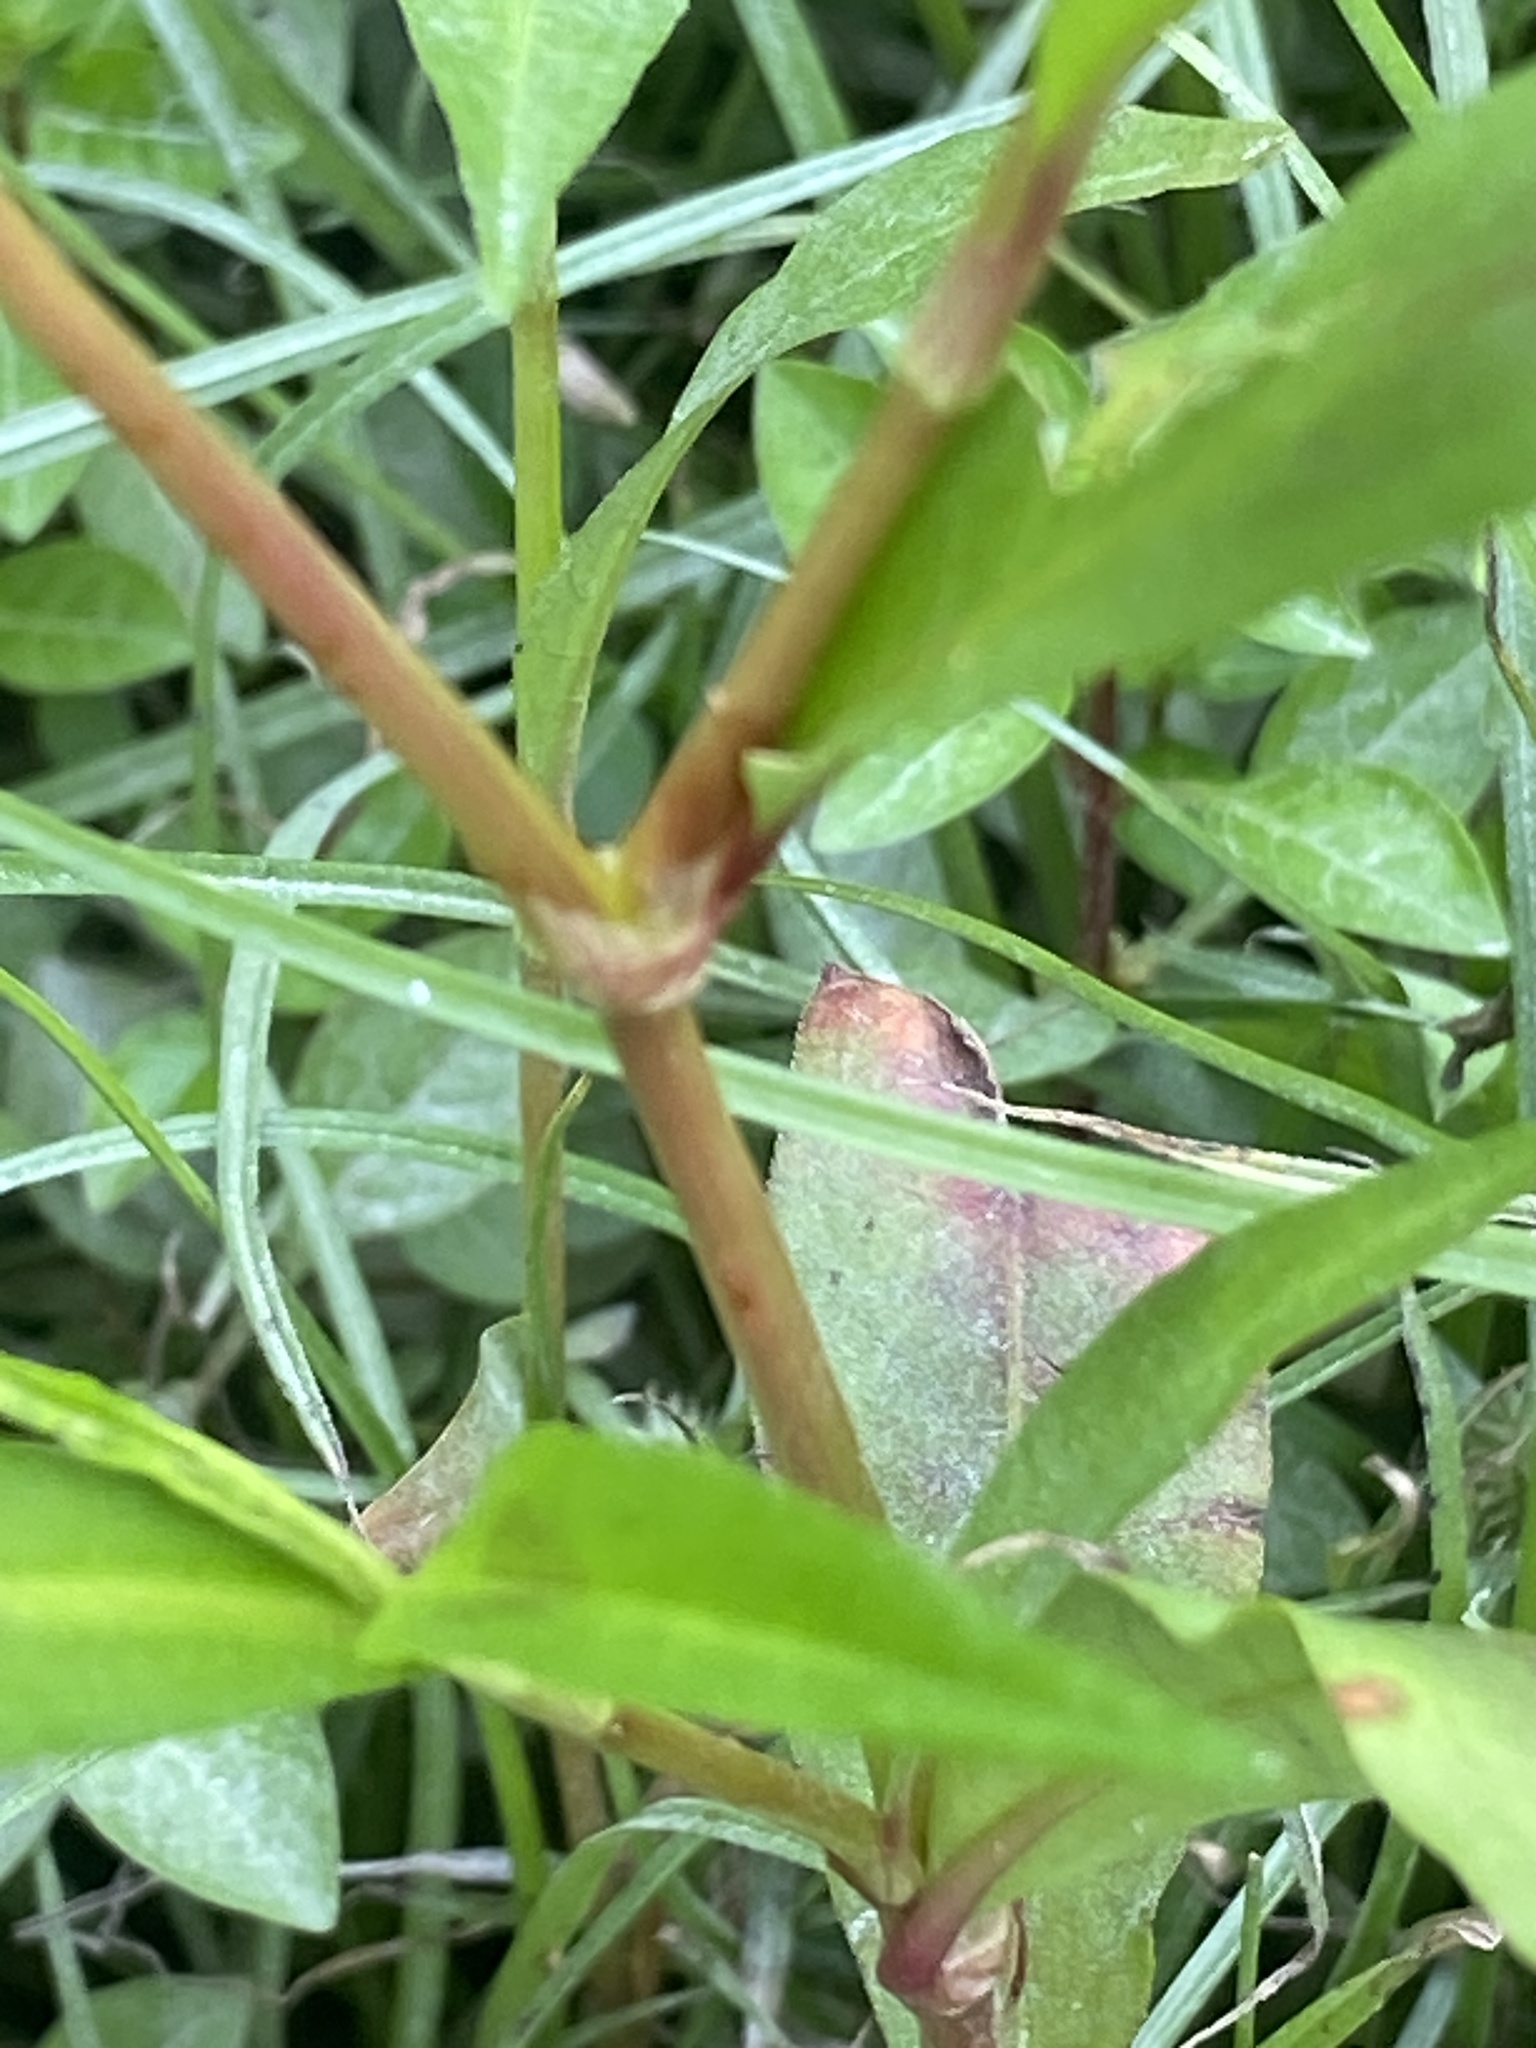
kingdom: Plantae
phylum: Tracheophyta
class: Magnoliopsida
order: Caryophyllales
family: Polygonaceae
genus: Persicaria
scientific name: Persicaria punctata
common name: Dotted smartweed
